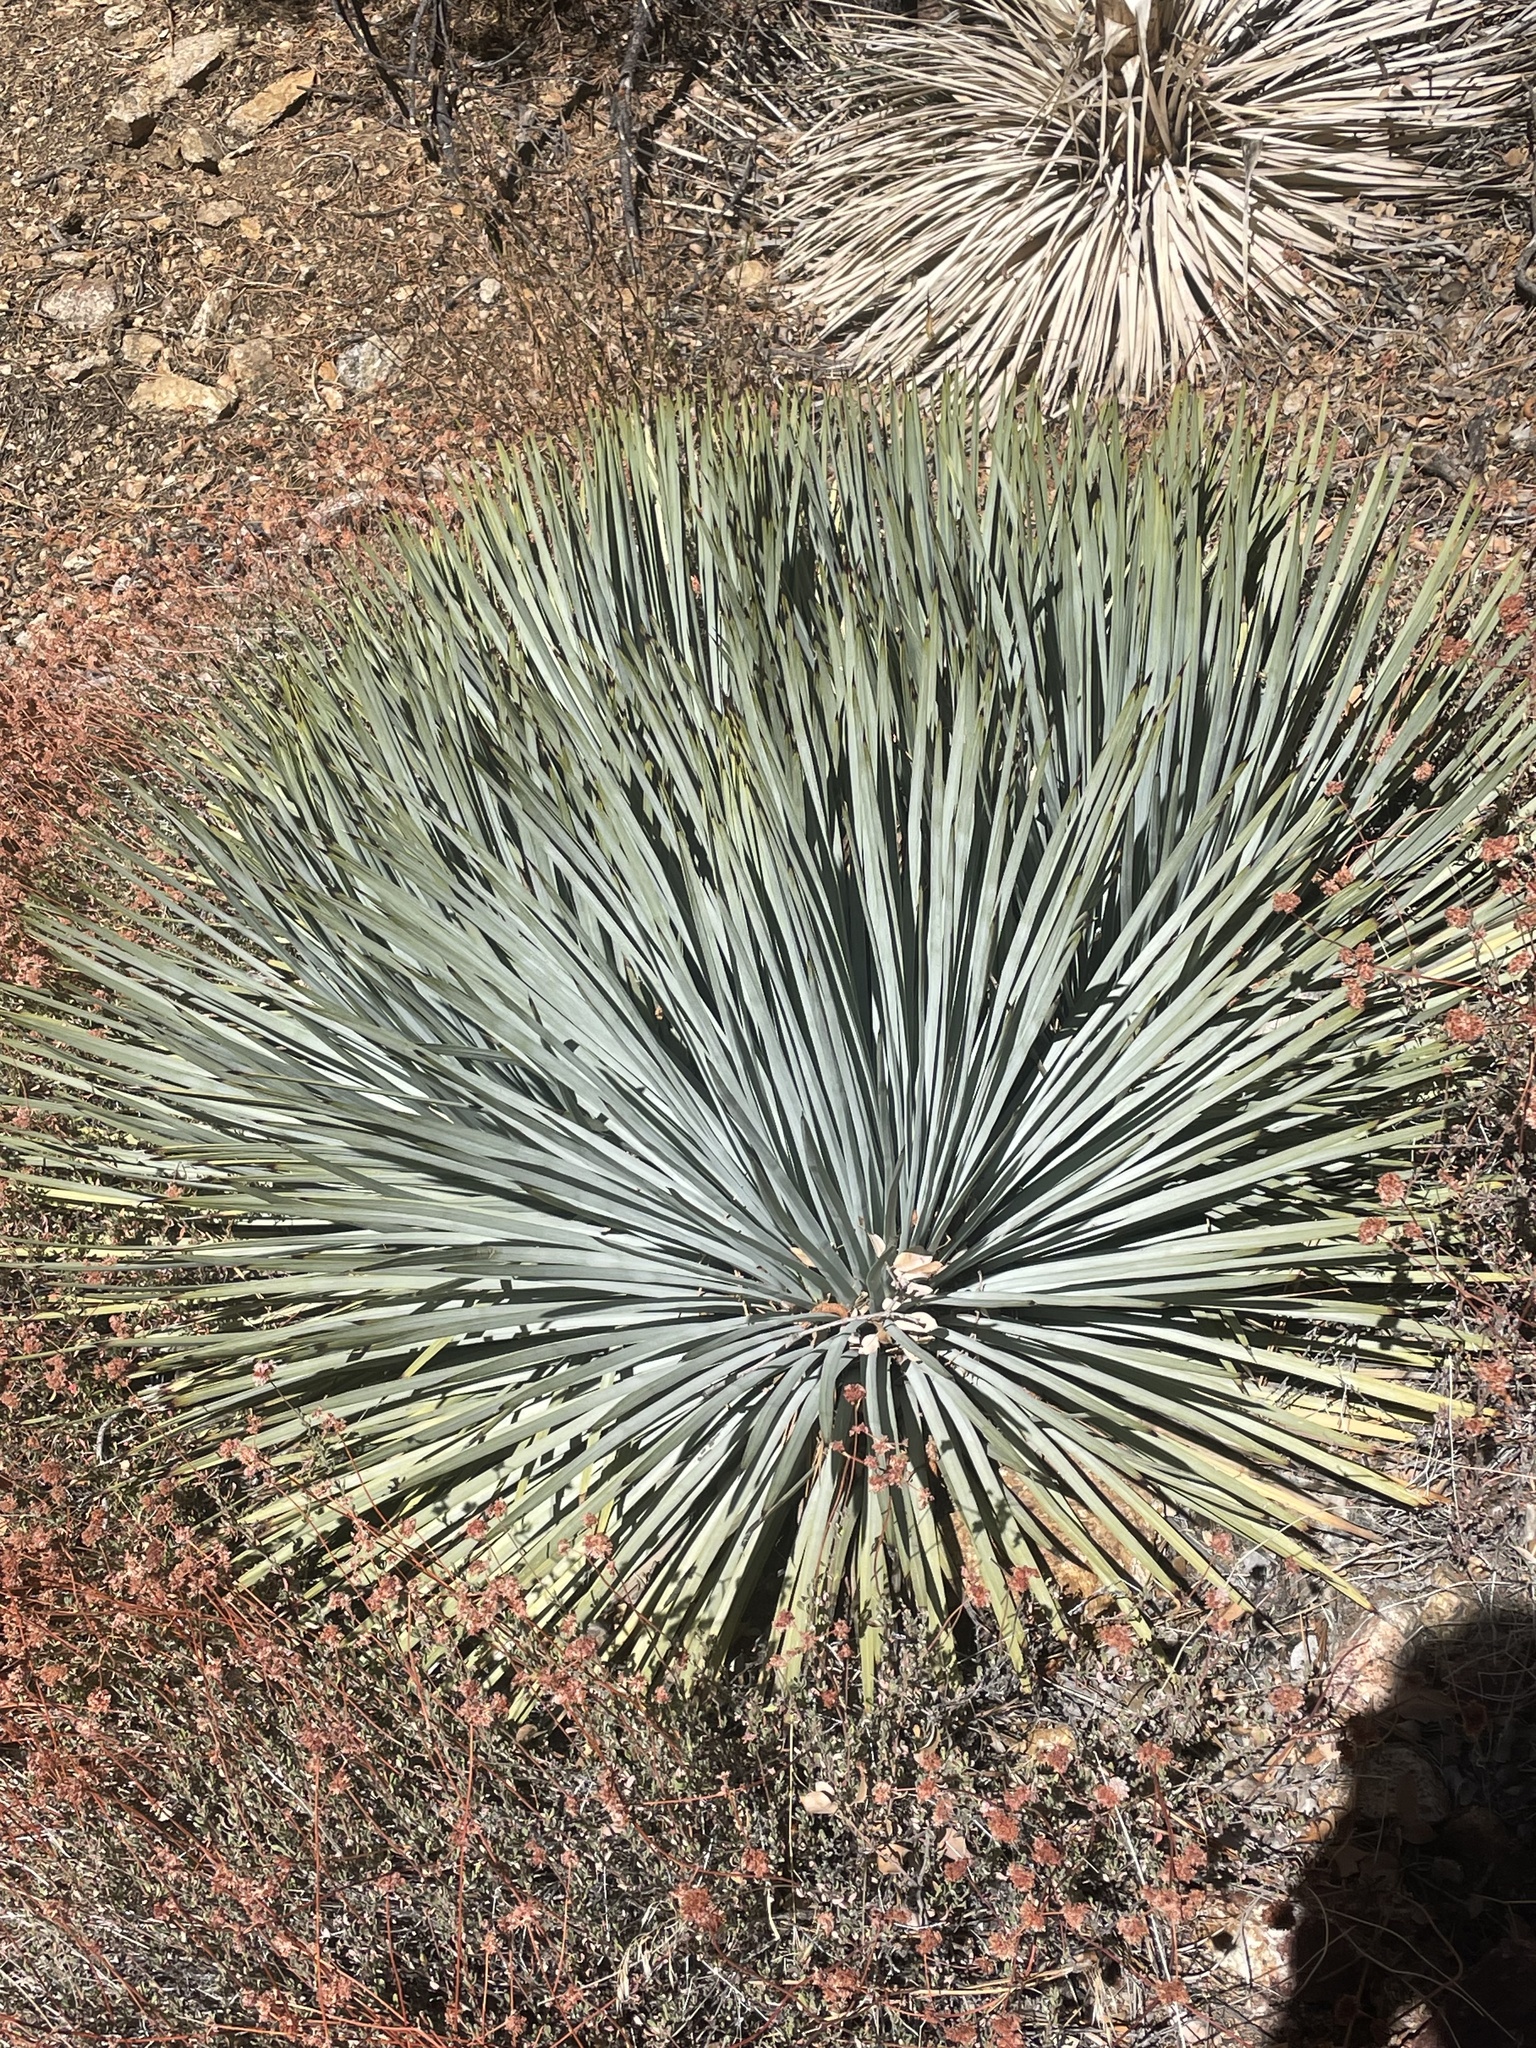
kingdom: Plantae
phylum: Tracheophyta
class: Liliopsida
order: Asparagales
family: Asparagaceae
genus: Hesperoyucca
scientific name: Hesperoyucca whipplei
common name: Our lord's-candle
